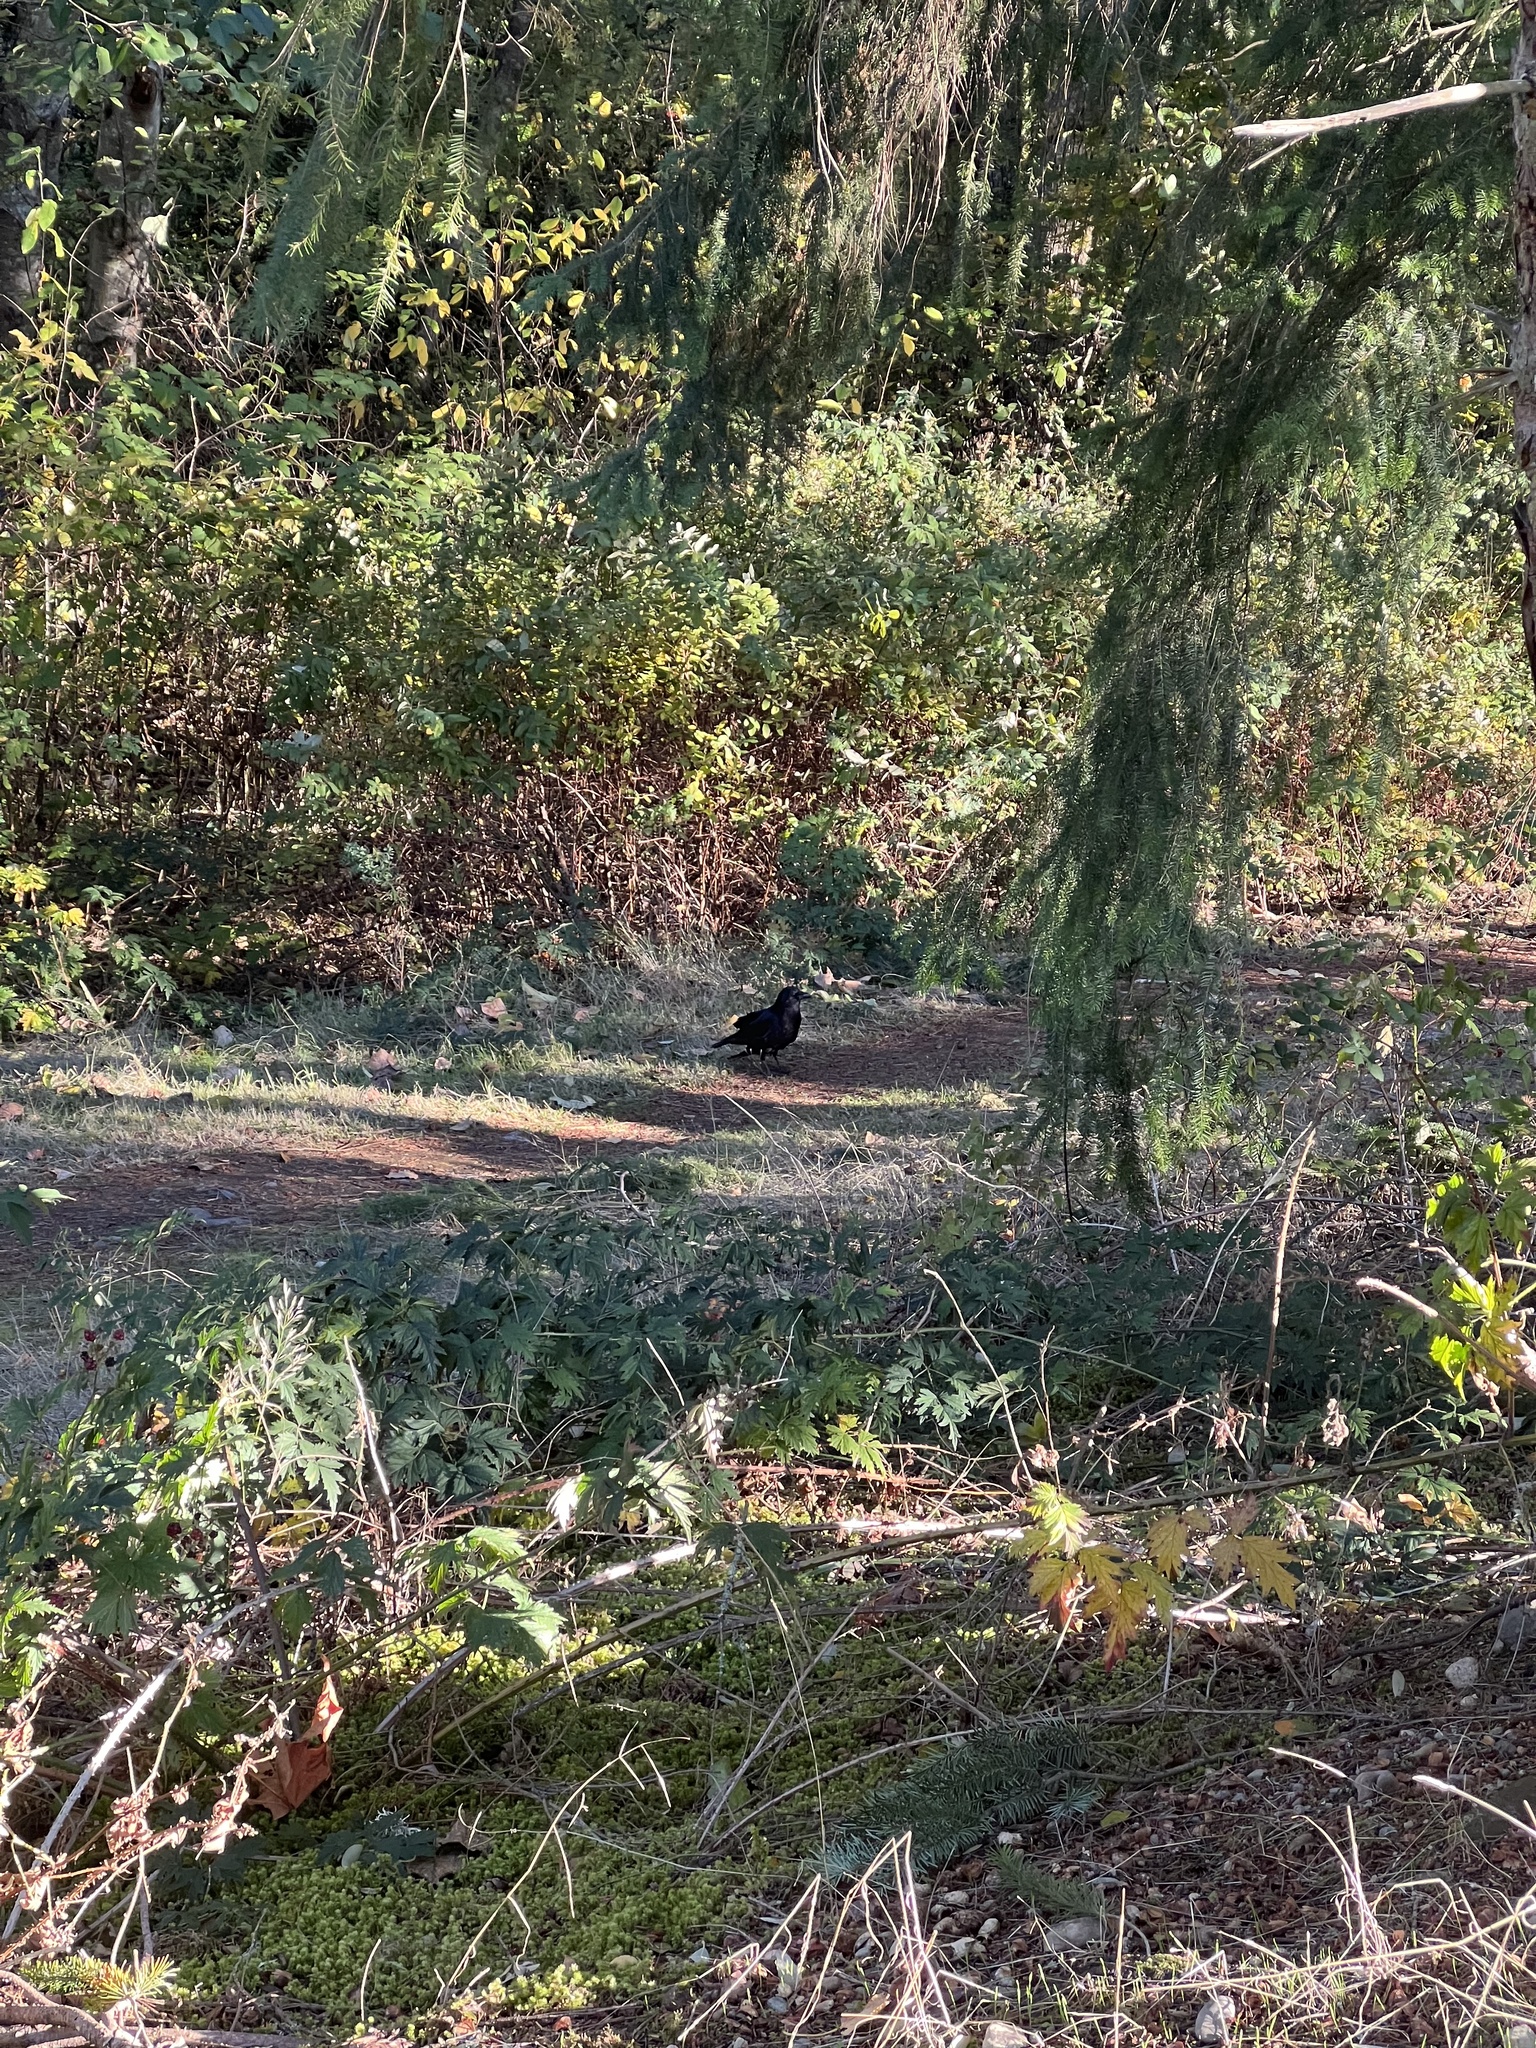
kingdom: Animalia
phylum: Chordata
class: Aves
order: Passeriformes
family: Corvidae
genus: Corvus
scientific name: Corvus brachyrhynchos
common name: American crow
